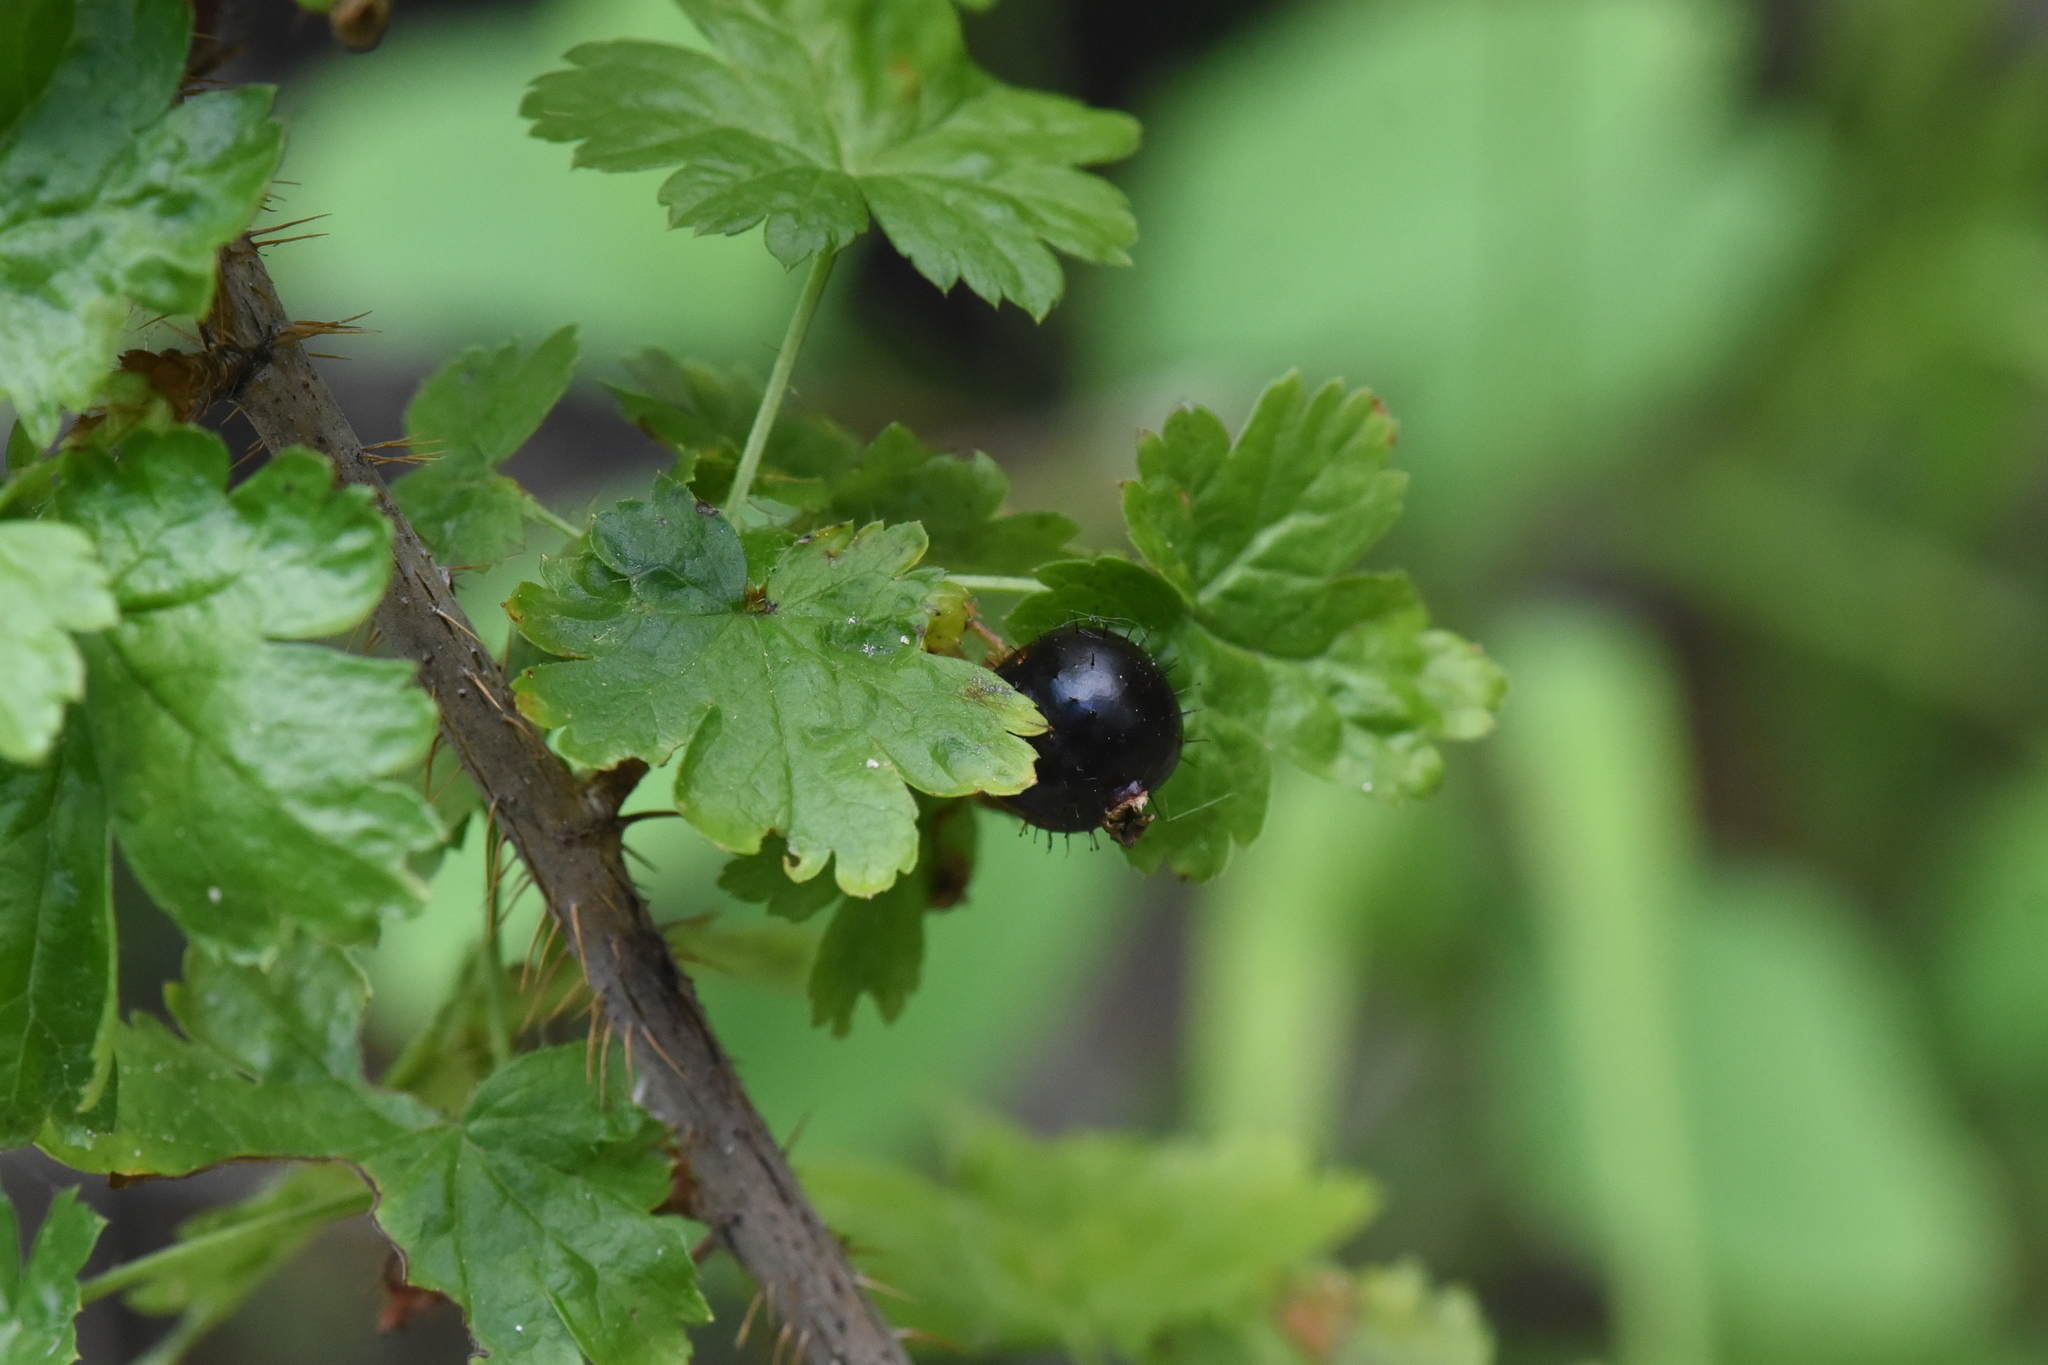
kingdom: Plantae
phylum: Tracheophyta
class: Magnoliopsida
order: Saxifragales
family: Grossulariaceae
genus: Ribes
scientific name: Ribes lacustre
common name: Black gooseberry
